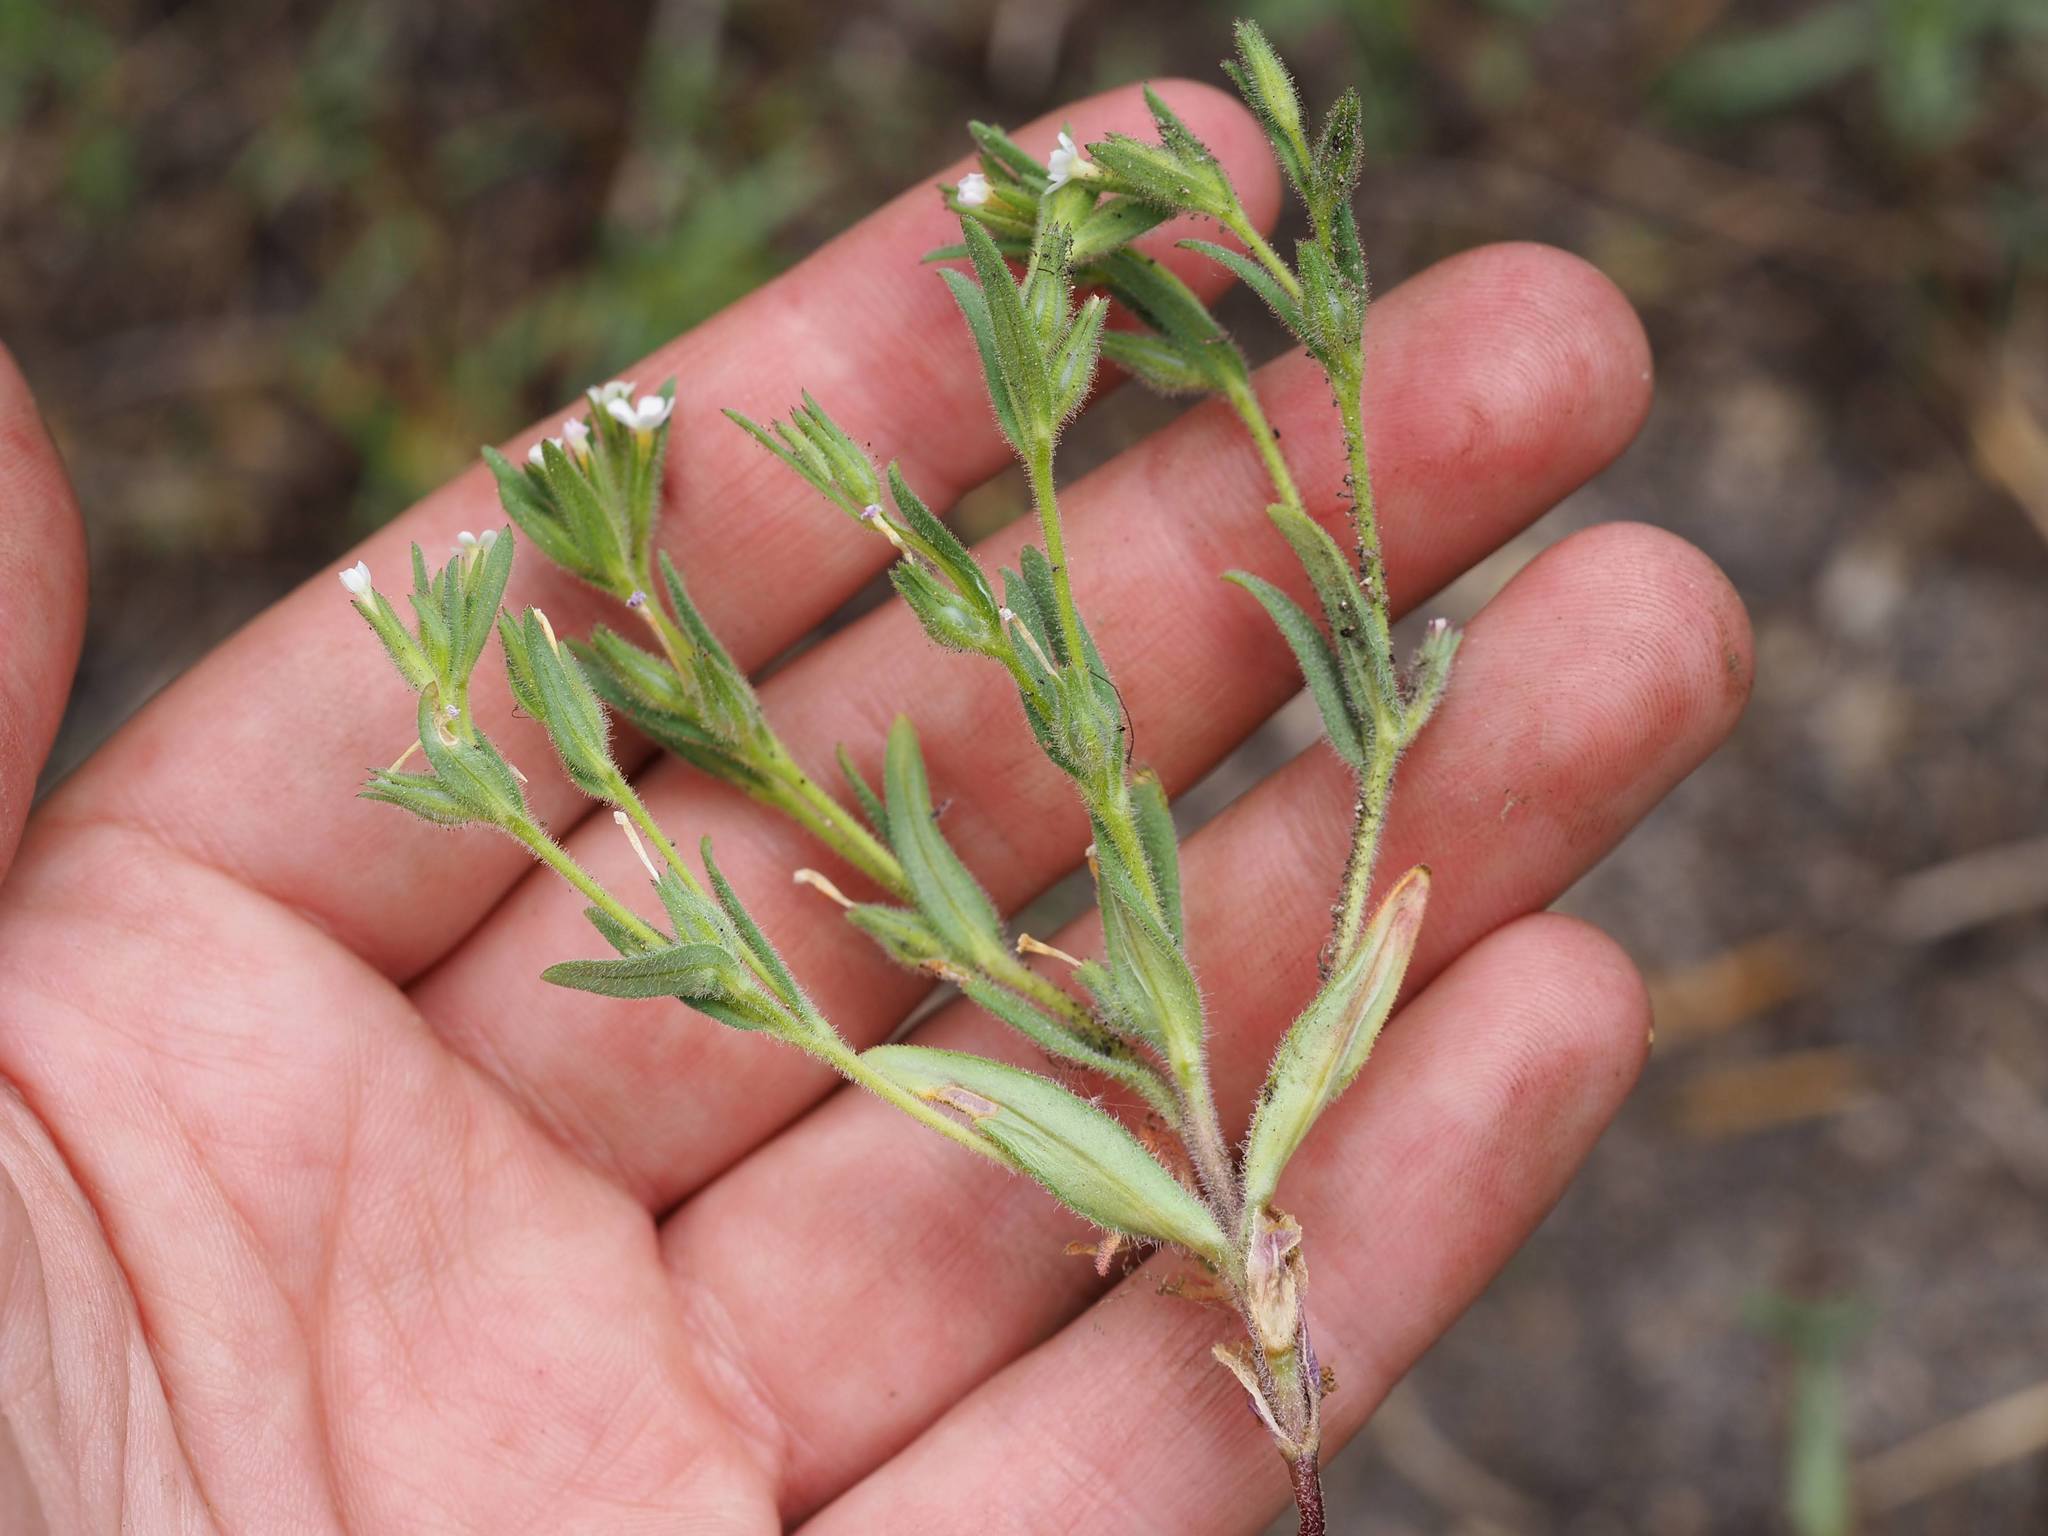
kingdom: Plantae
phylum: Tracheophyta
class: Magnoliopsida
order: Ericales
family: Polemoniaceae
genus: Phlox
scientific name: Phlox gracilis
